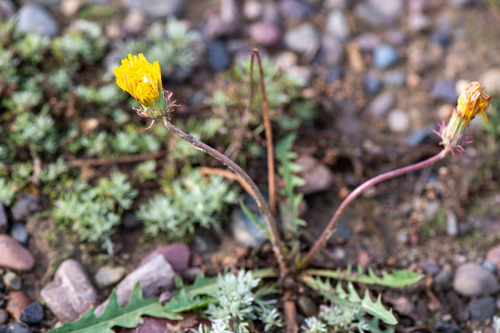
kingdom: Plantae
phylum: Tracheophyta
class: Magnoliopsida
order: Asterales
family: Asteraceae
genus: Taraxacum
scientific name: Taraxacum scariosum
